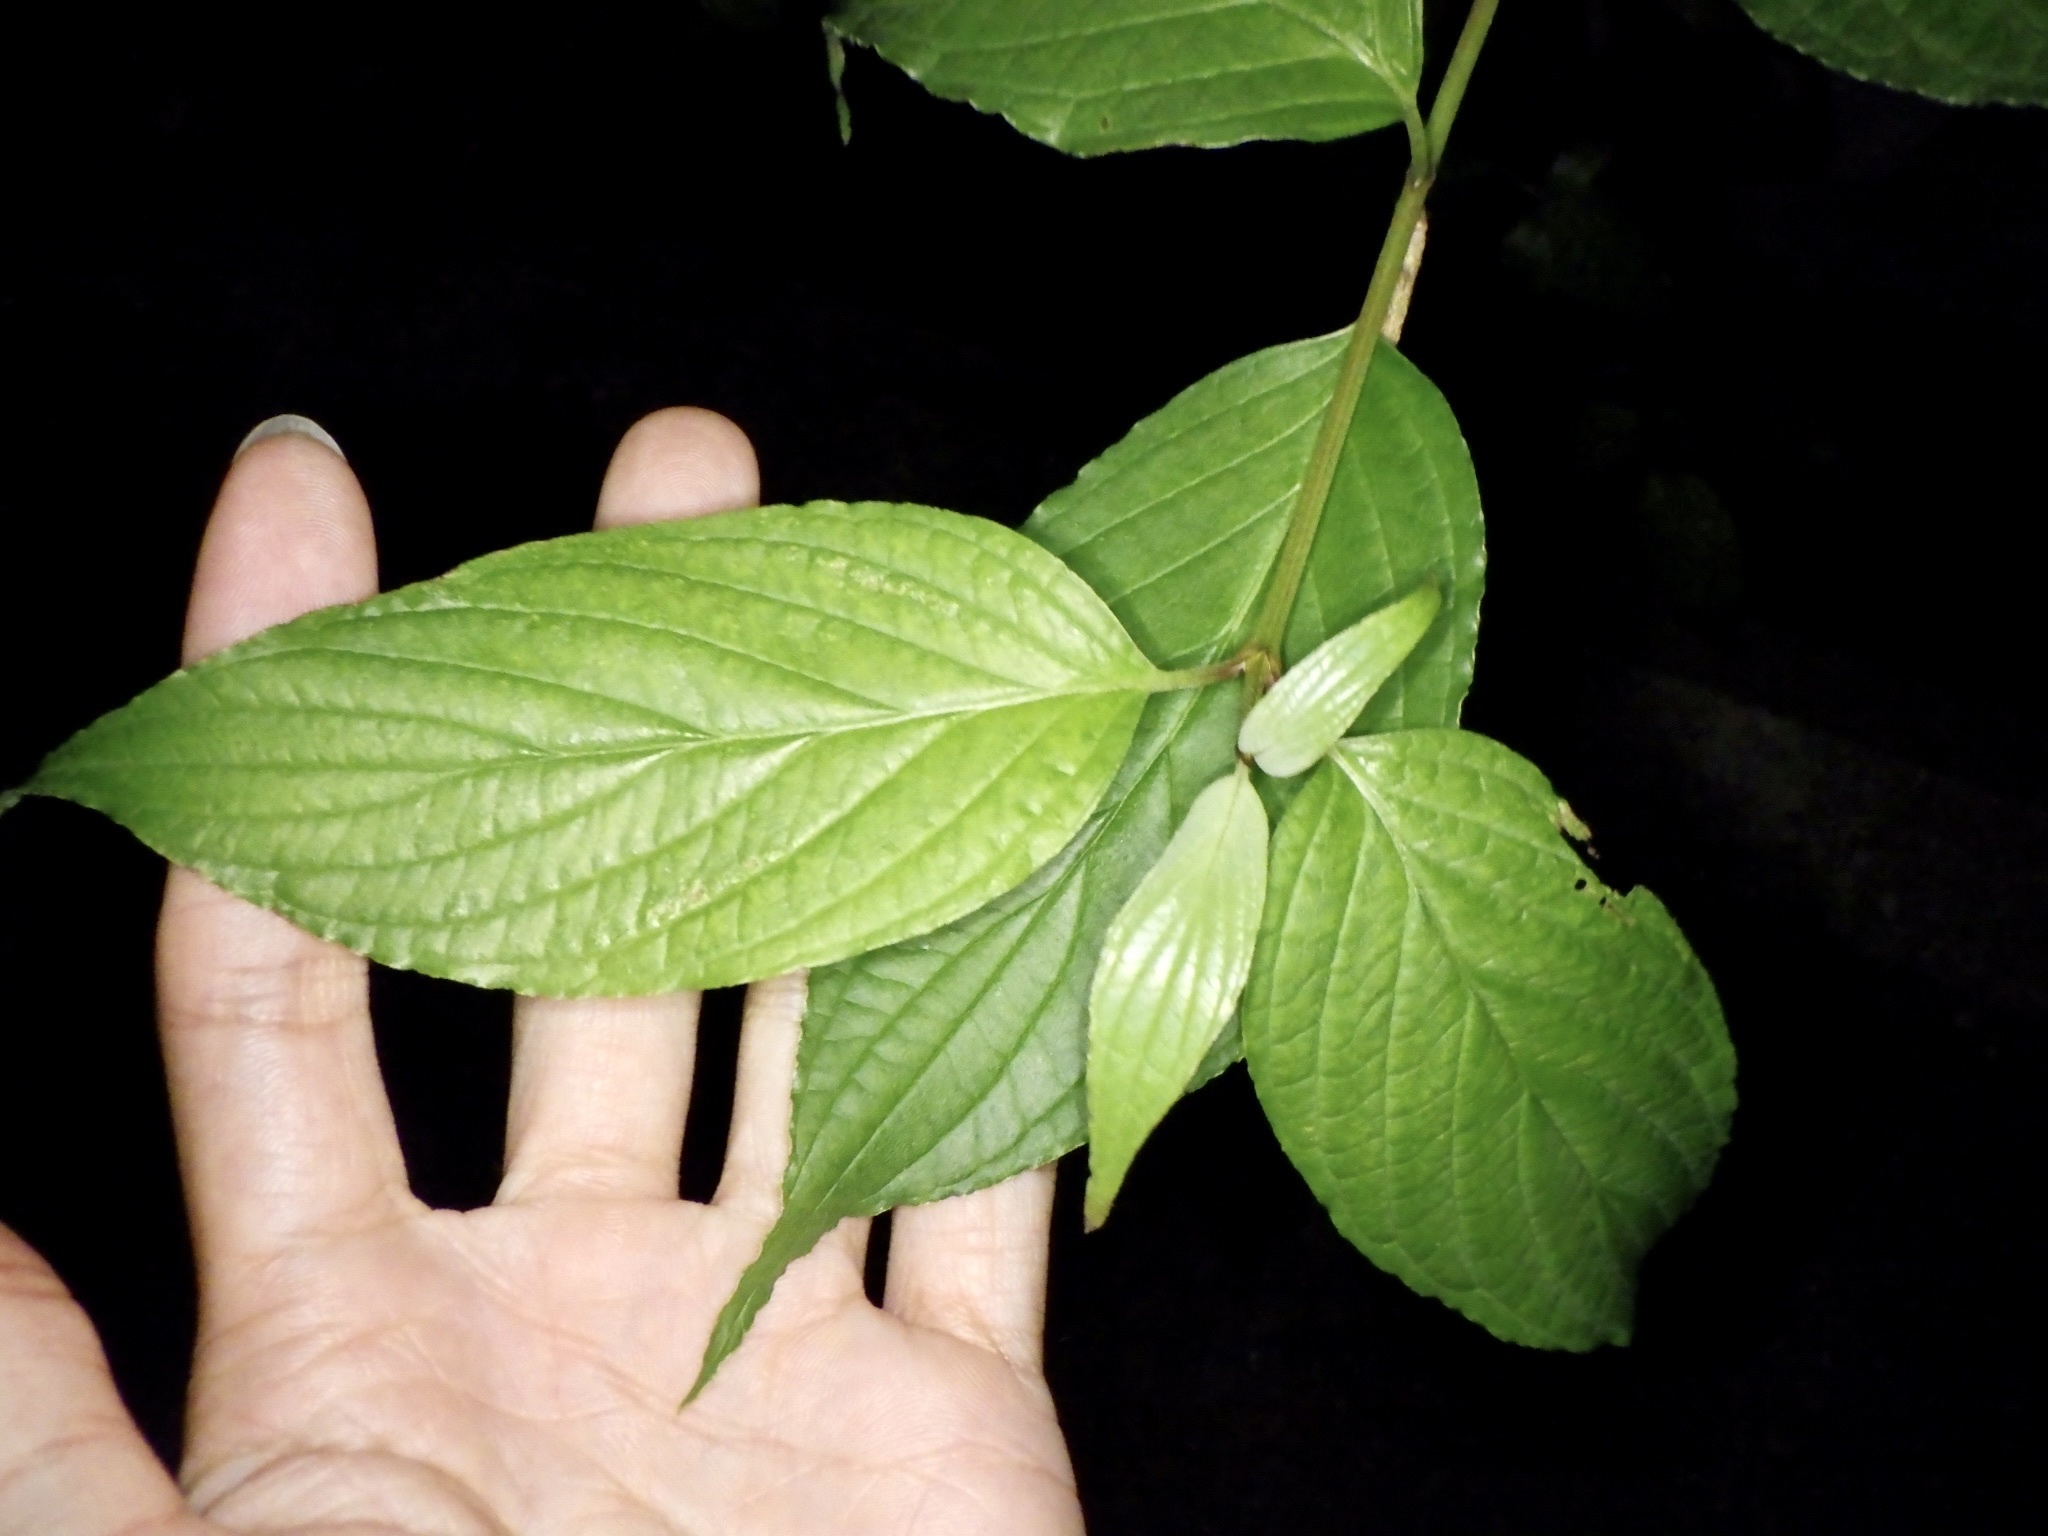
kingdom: Plantae
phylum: Tracheophyta
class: Magnoliopsida
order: Cornales
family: Cornaceae
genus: Cornus
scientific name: Cornus macrophylla
